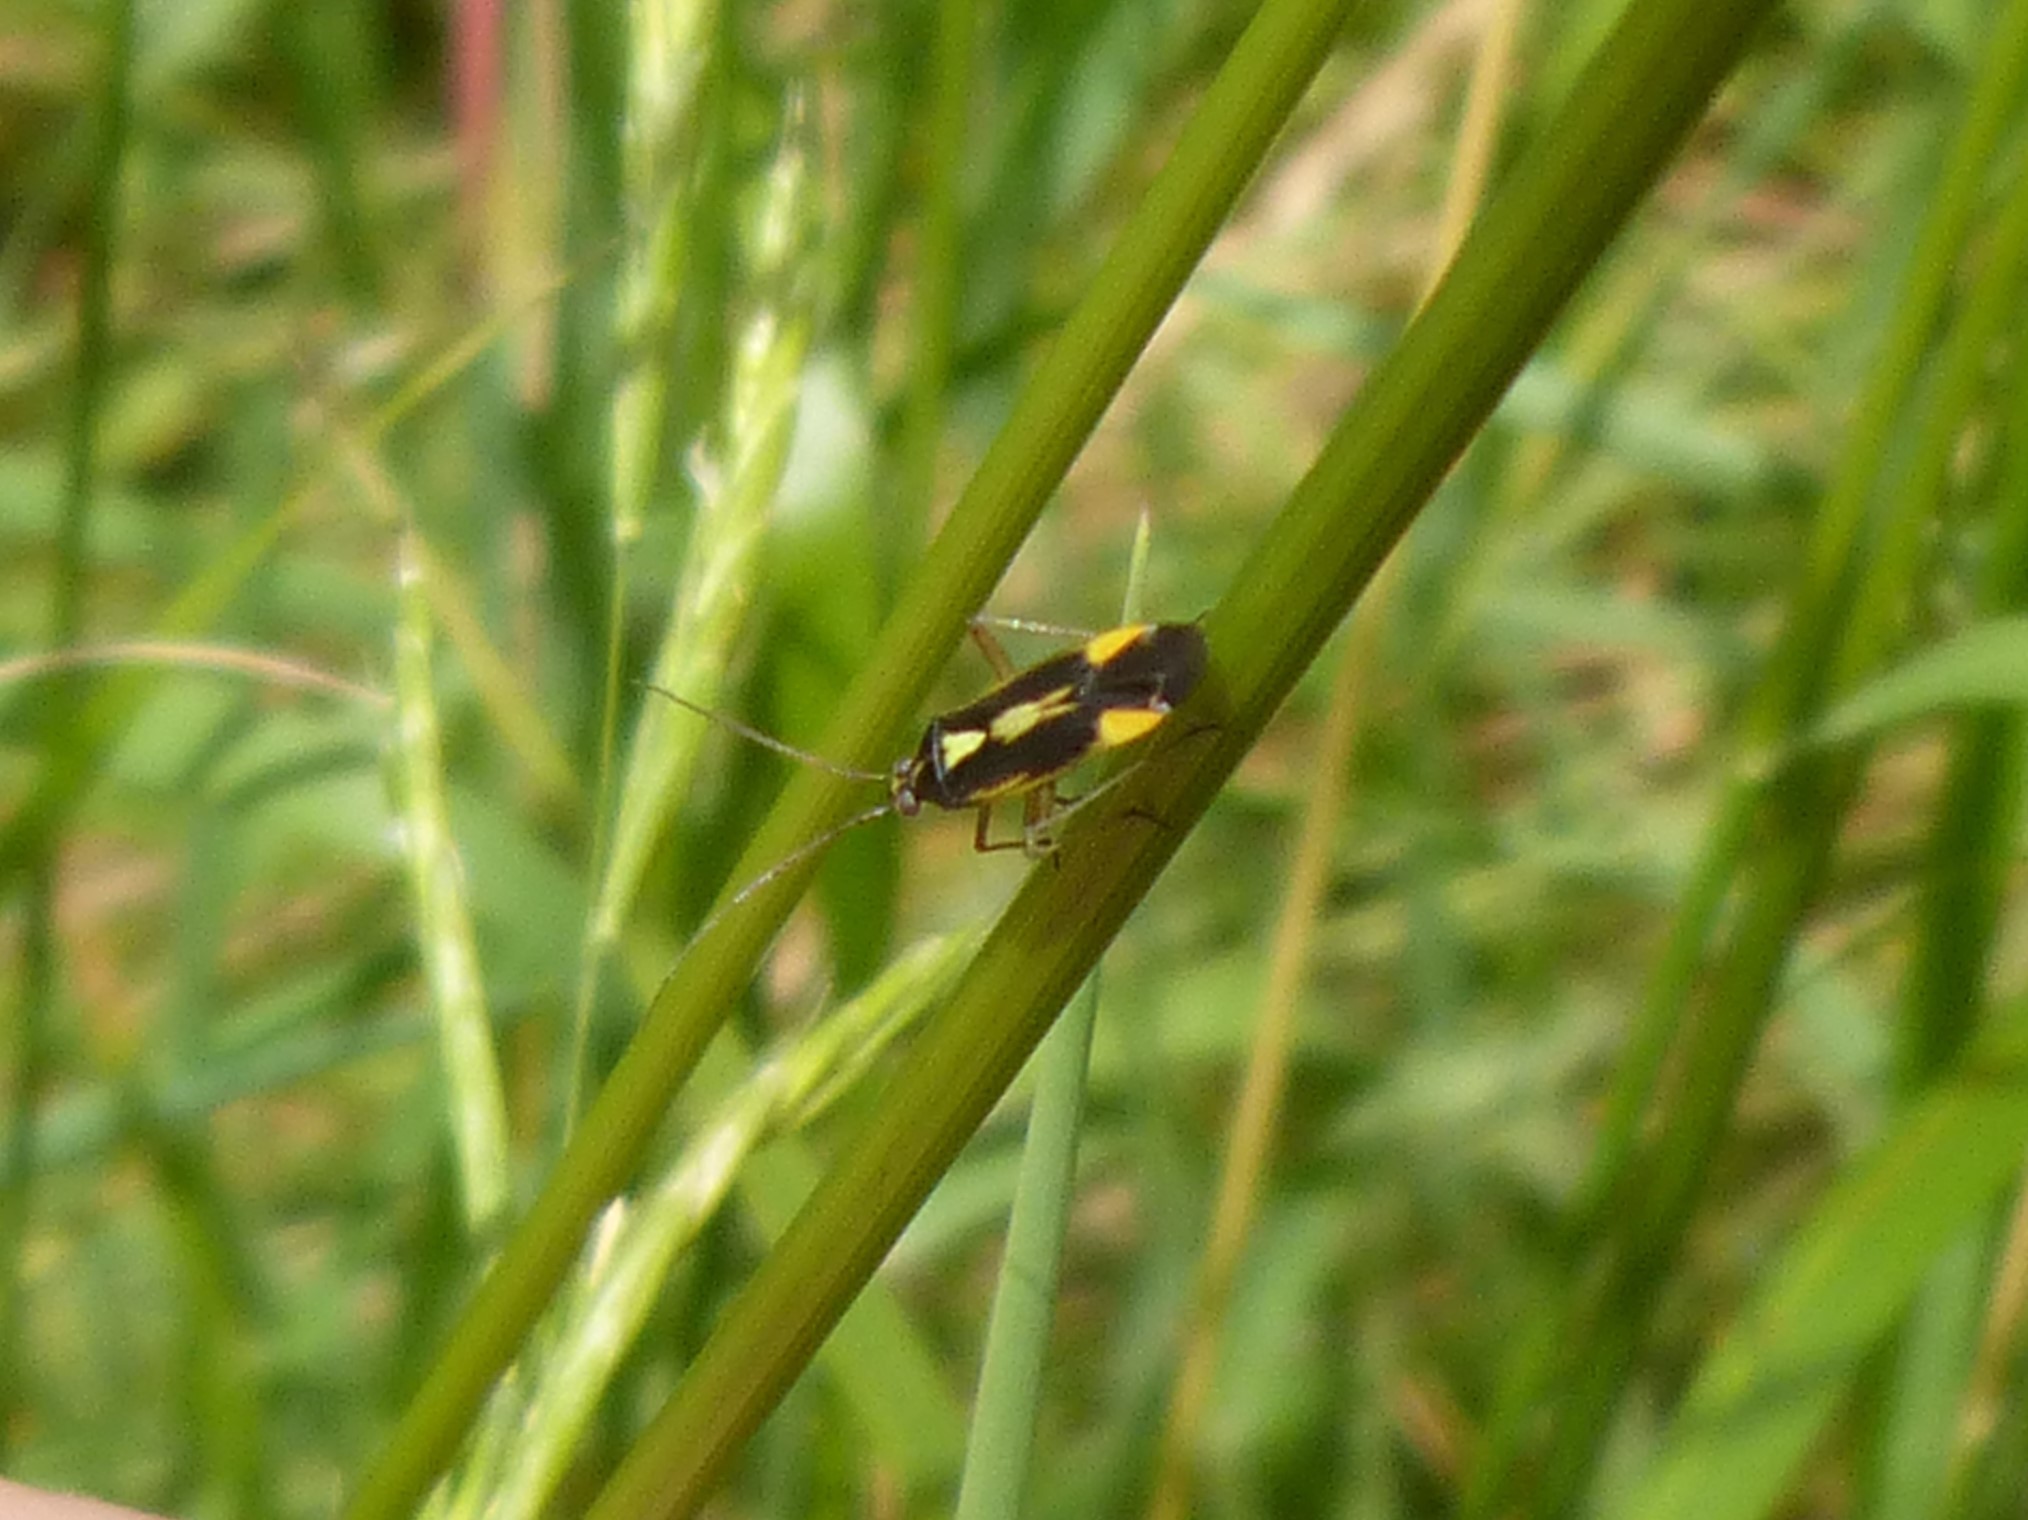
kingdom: Animalia
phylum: Arthropoda
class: Insecta
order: Hemiptera
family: Miridae
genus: Stenotus
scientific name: Stenotus binotatus
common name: Plant bug
